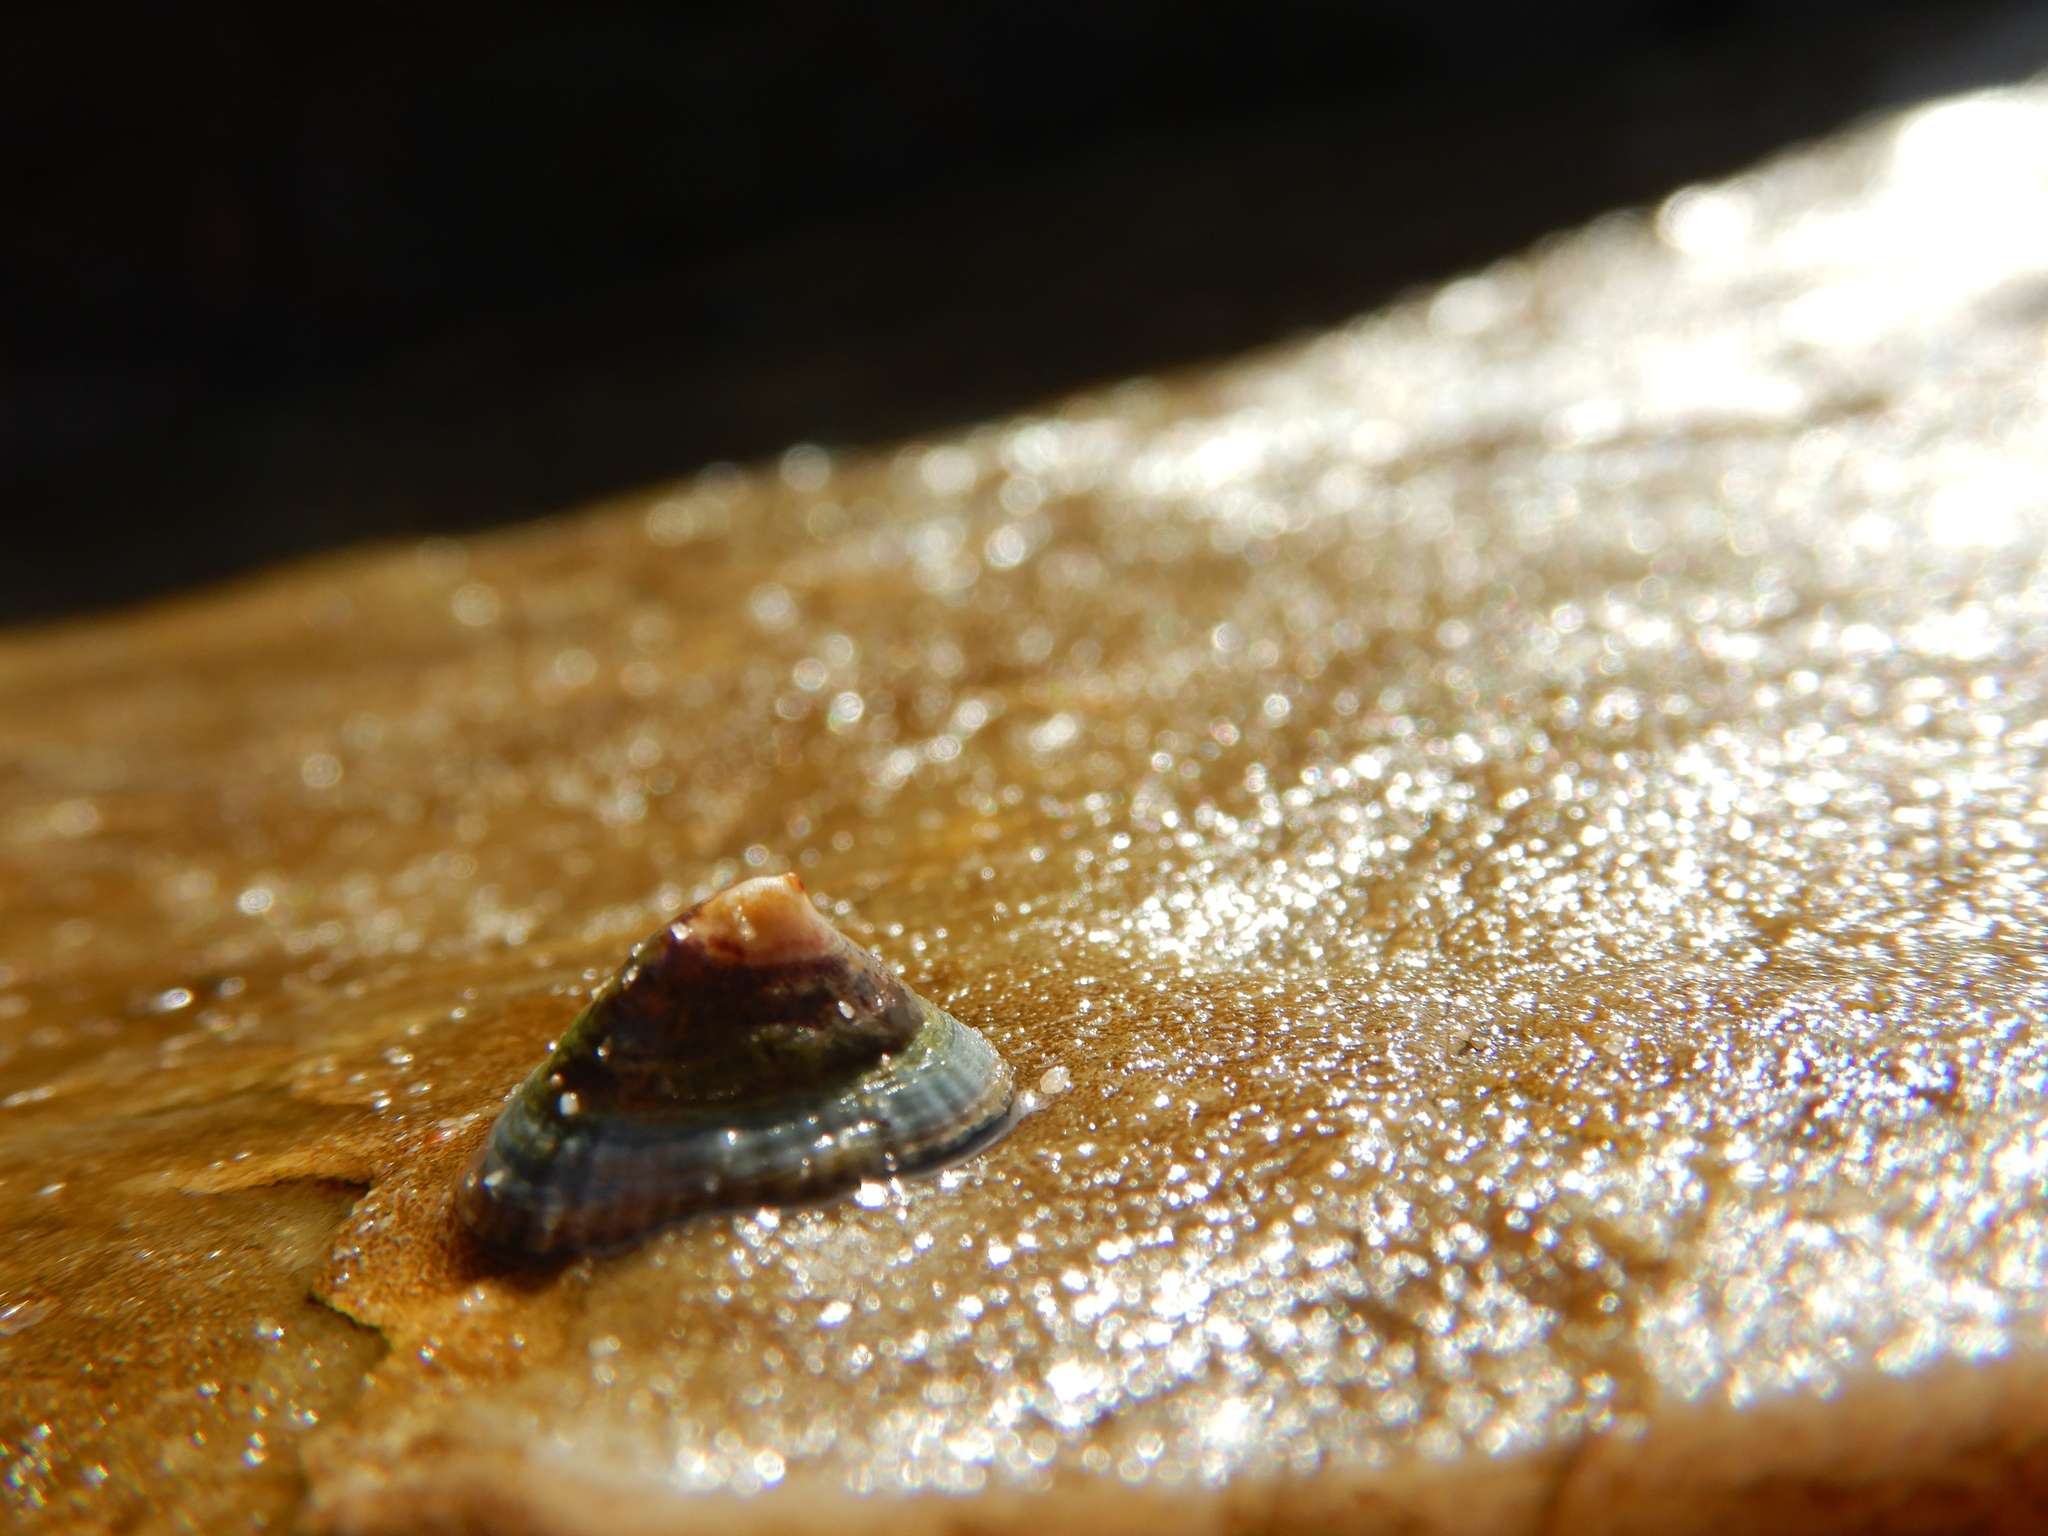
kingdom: Animalia
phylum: Mollusca
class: Gastropoda
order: Siphonariida
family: Siphonariidae
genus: Siphonaria
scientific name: Siphonaria tasmanica
